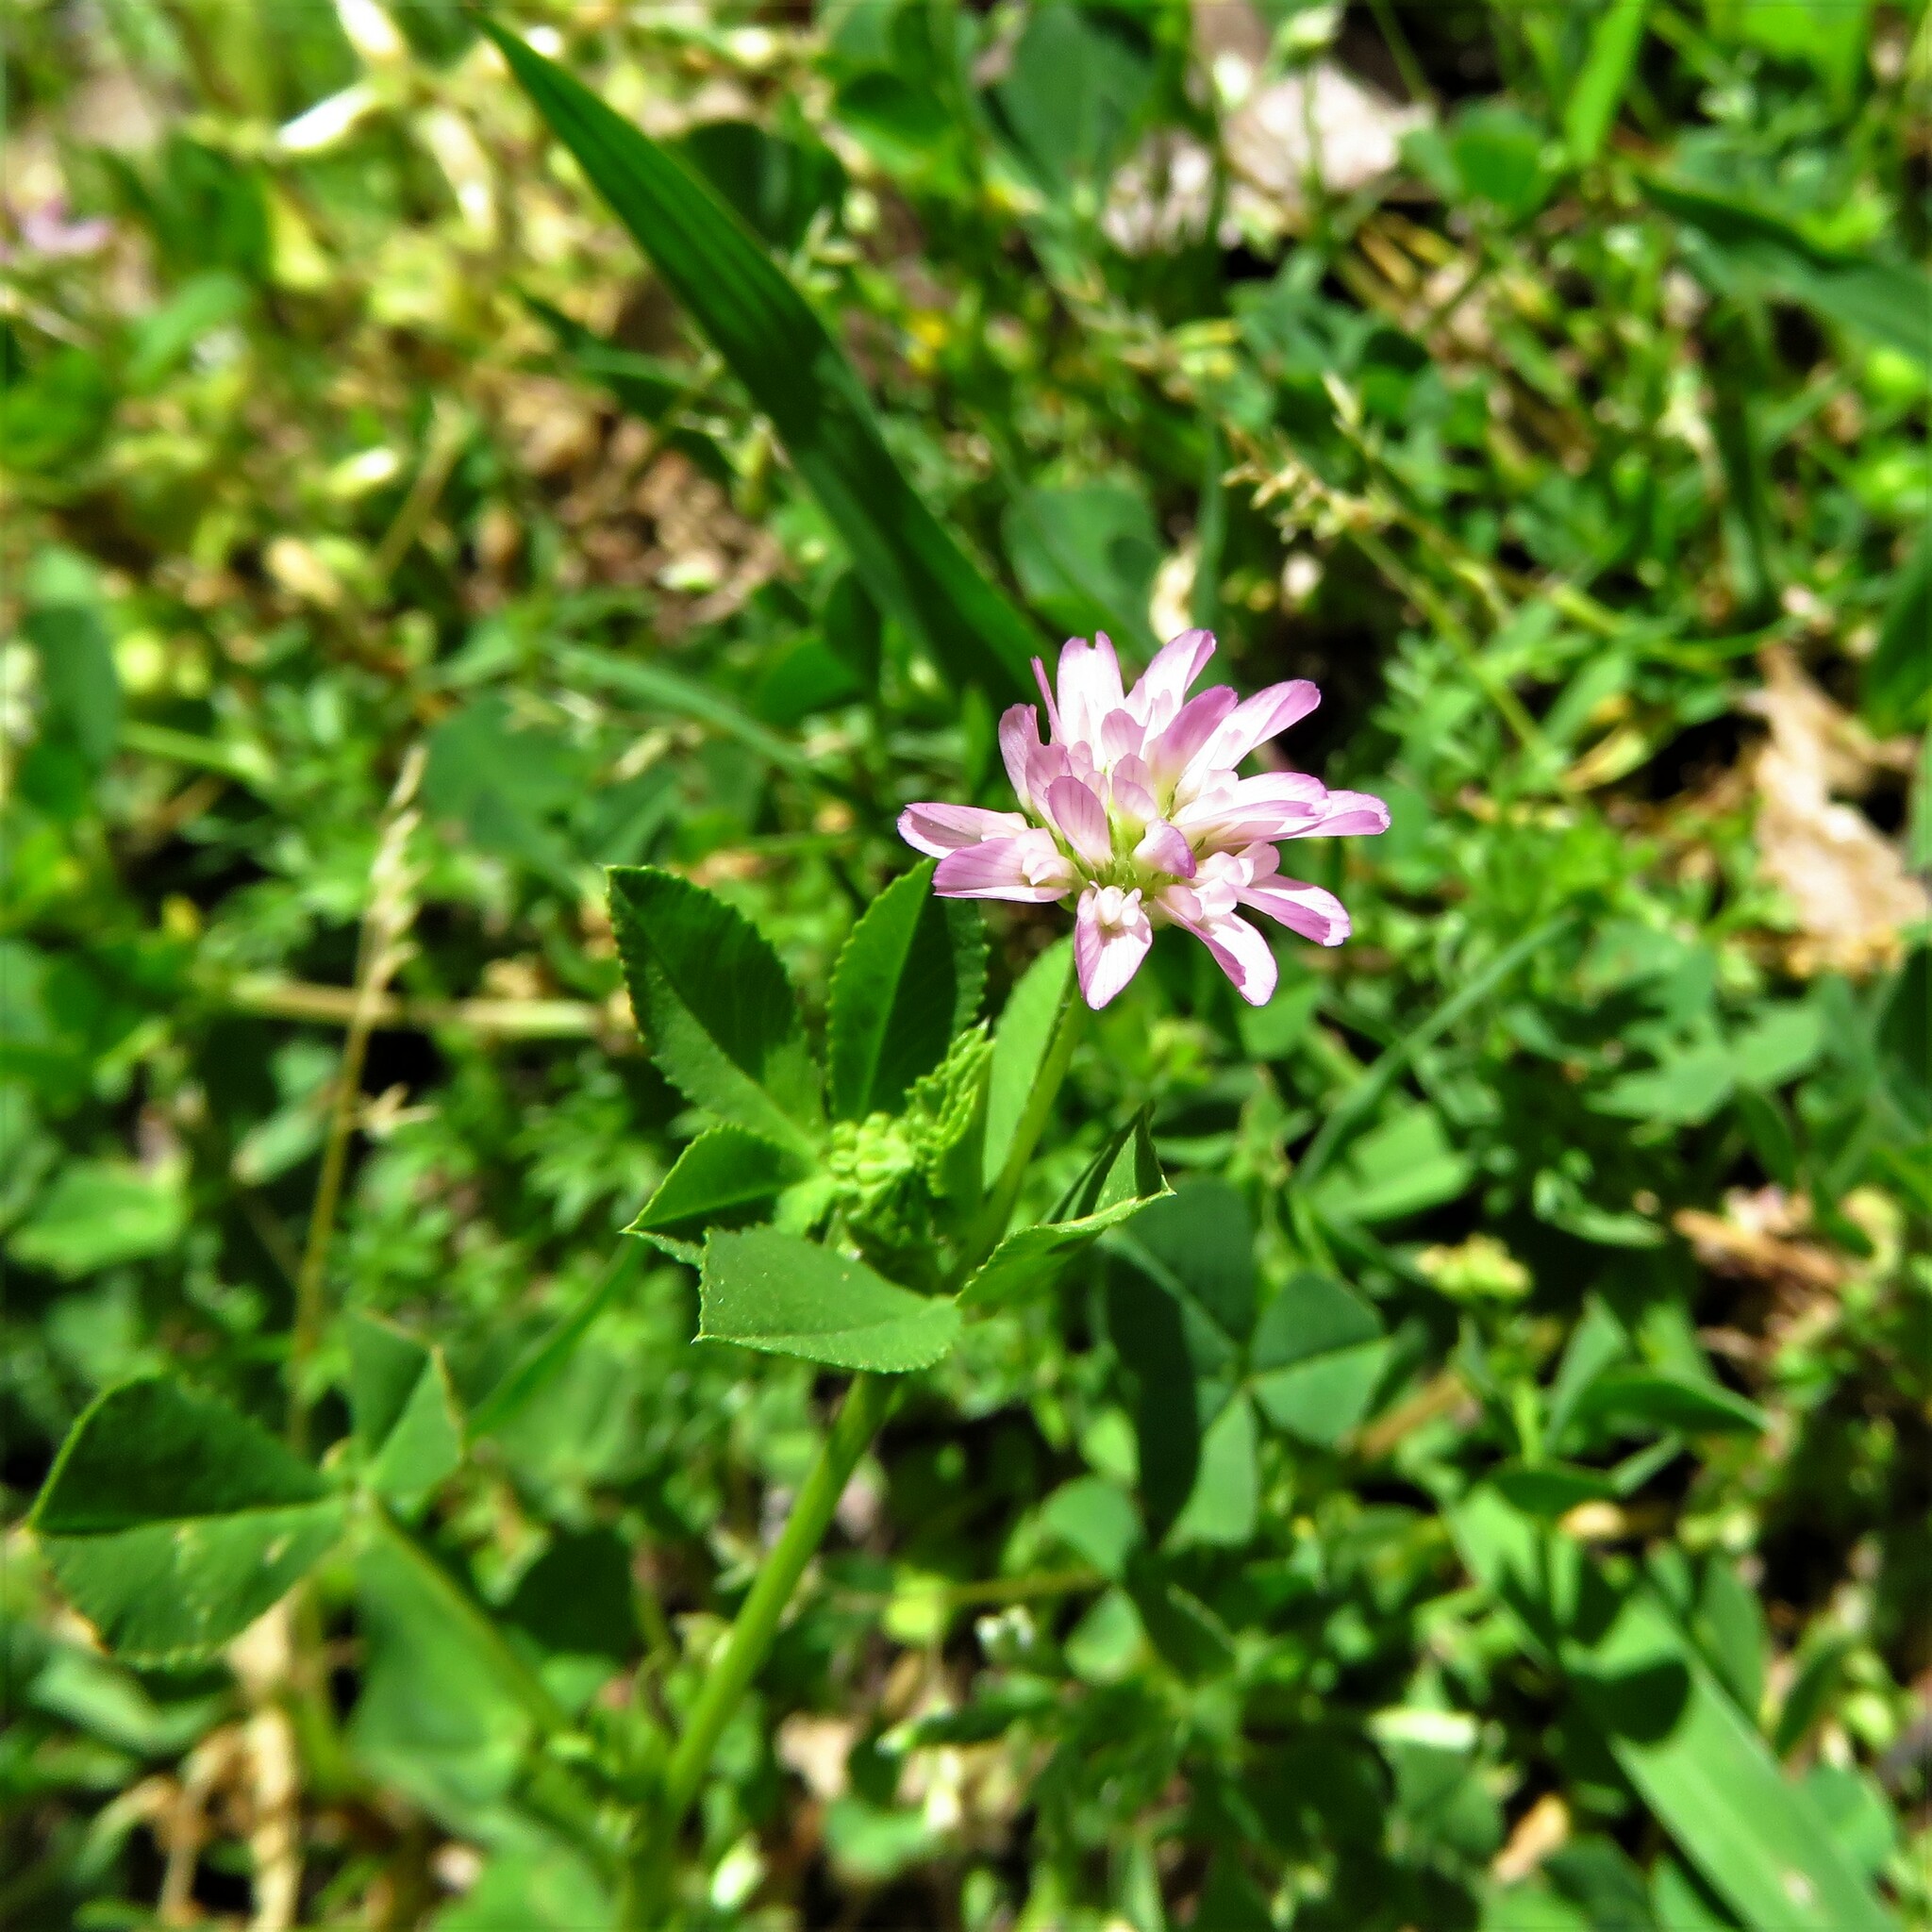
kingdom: Plantae
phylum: Tracheophyta
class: Magnoliopsida
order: Fabales
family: Fabaceae
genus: Trifolium
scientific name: Trifolium resupinatum
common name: Reversed clover
